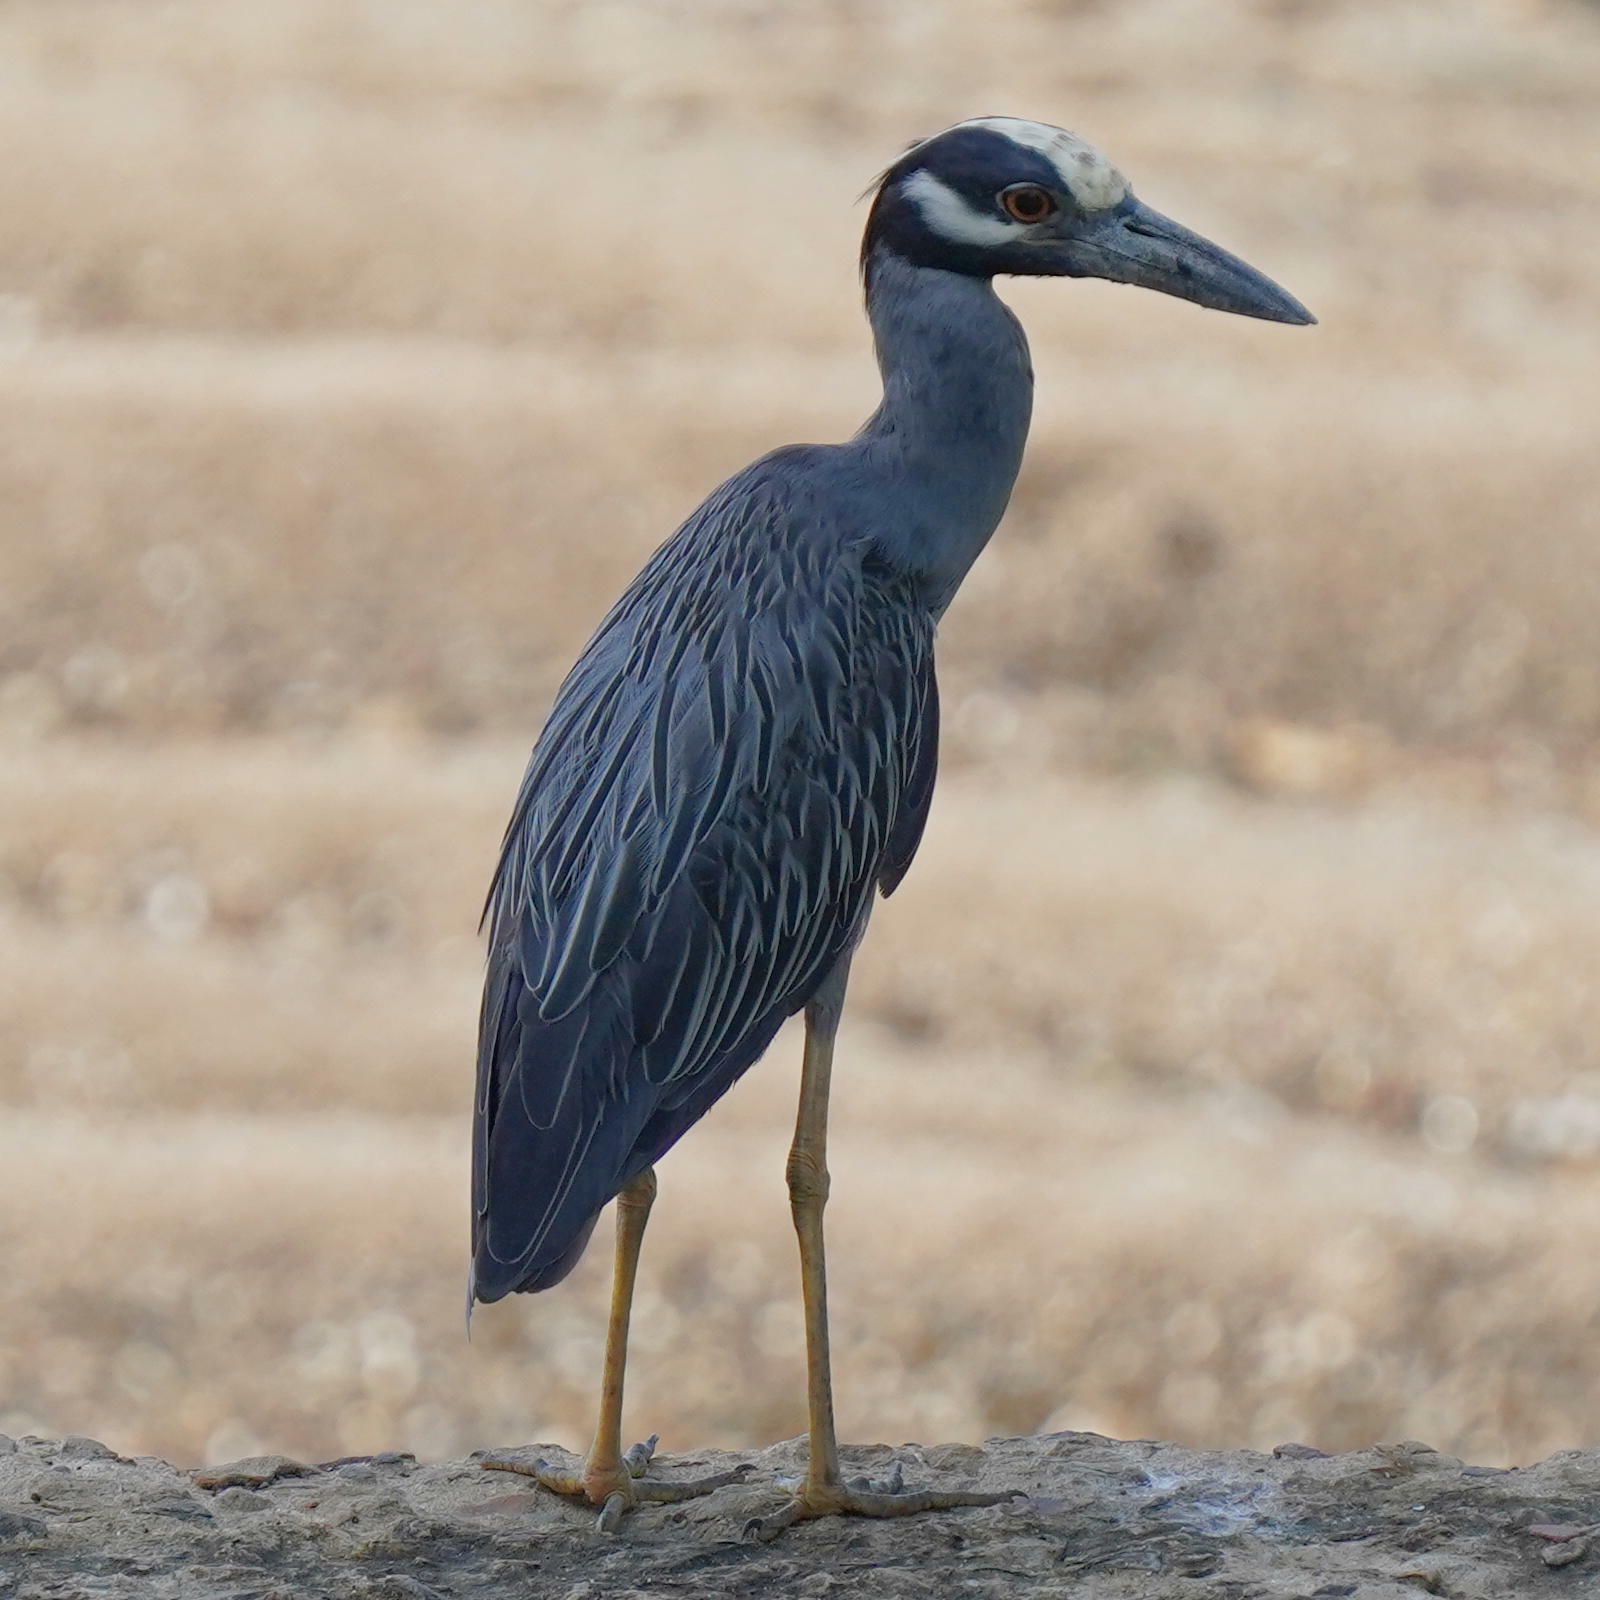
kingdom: Animalia
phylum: Chordata
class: Aves
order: Pelecaniformes
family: Ardeidae
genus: Nyctanassa
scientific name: Nyctanassa violacea
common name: Yellow-crowned night heron
